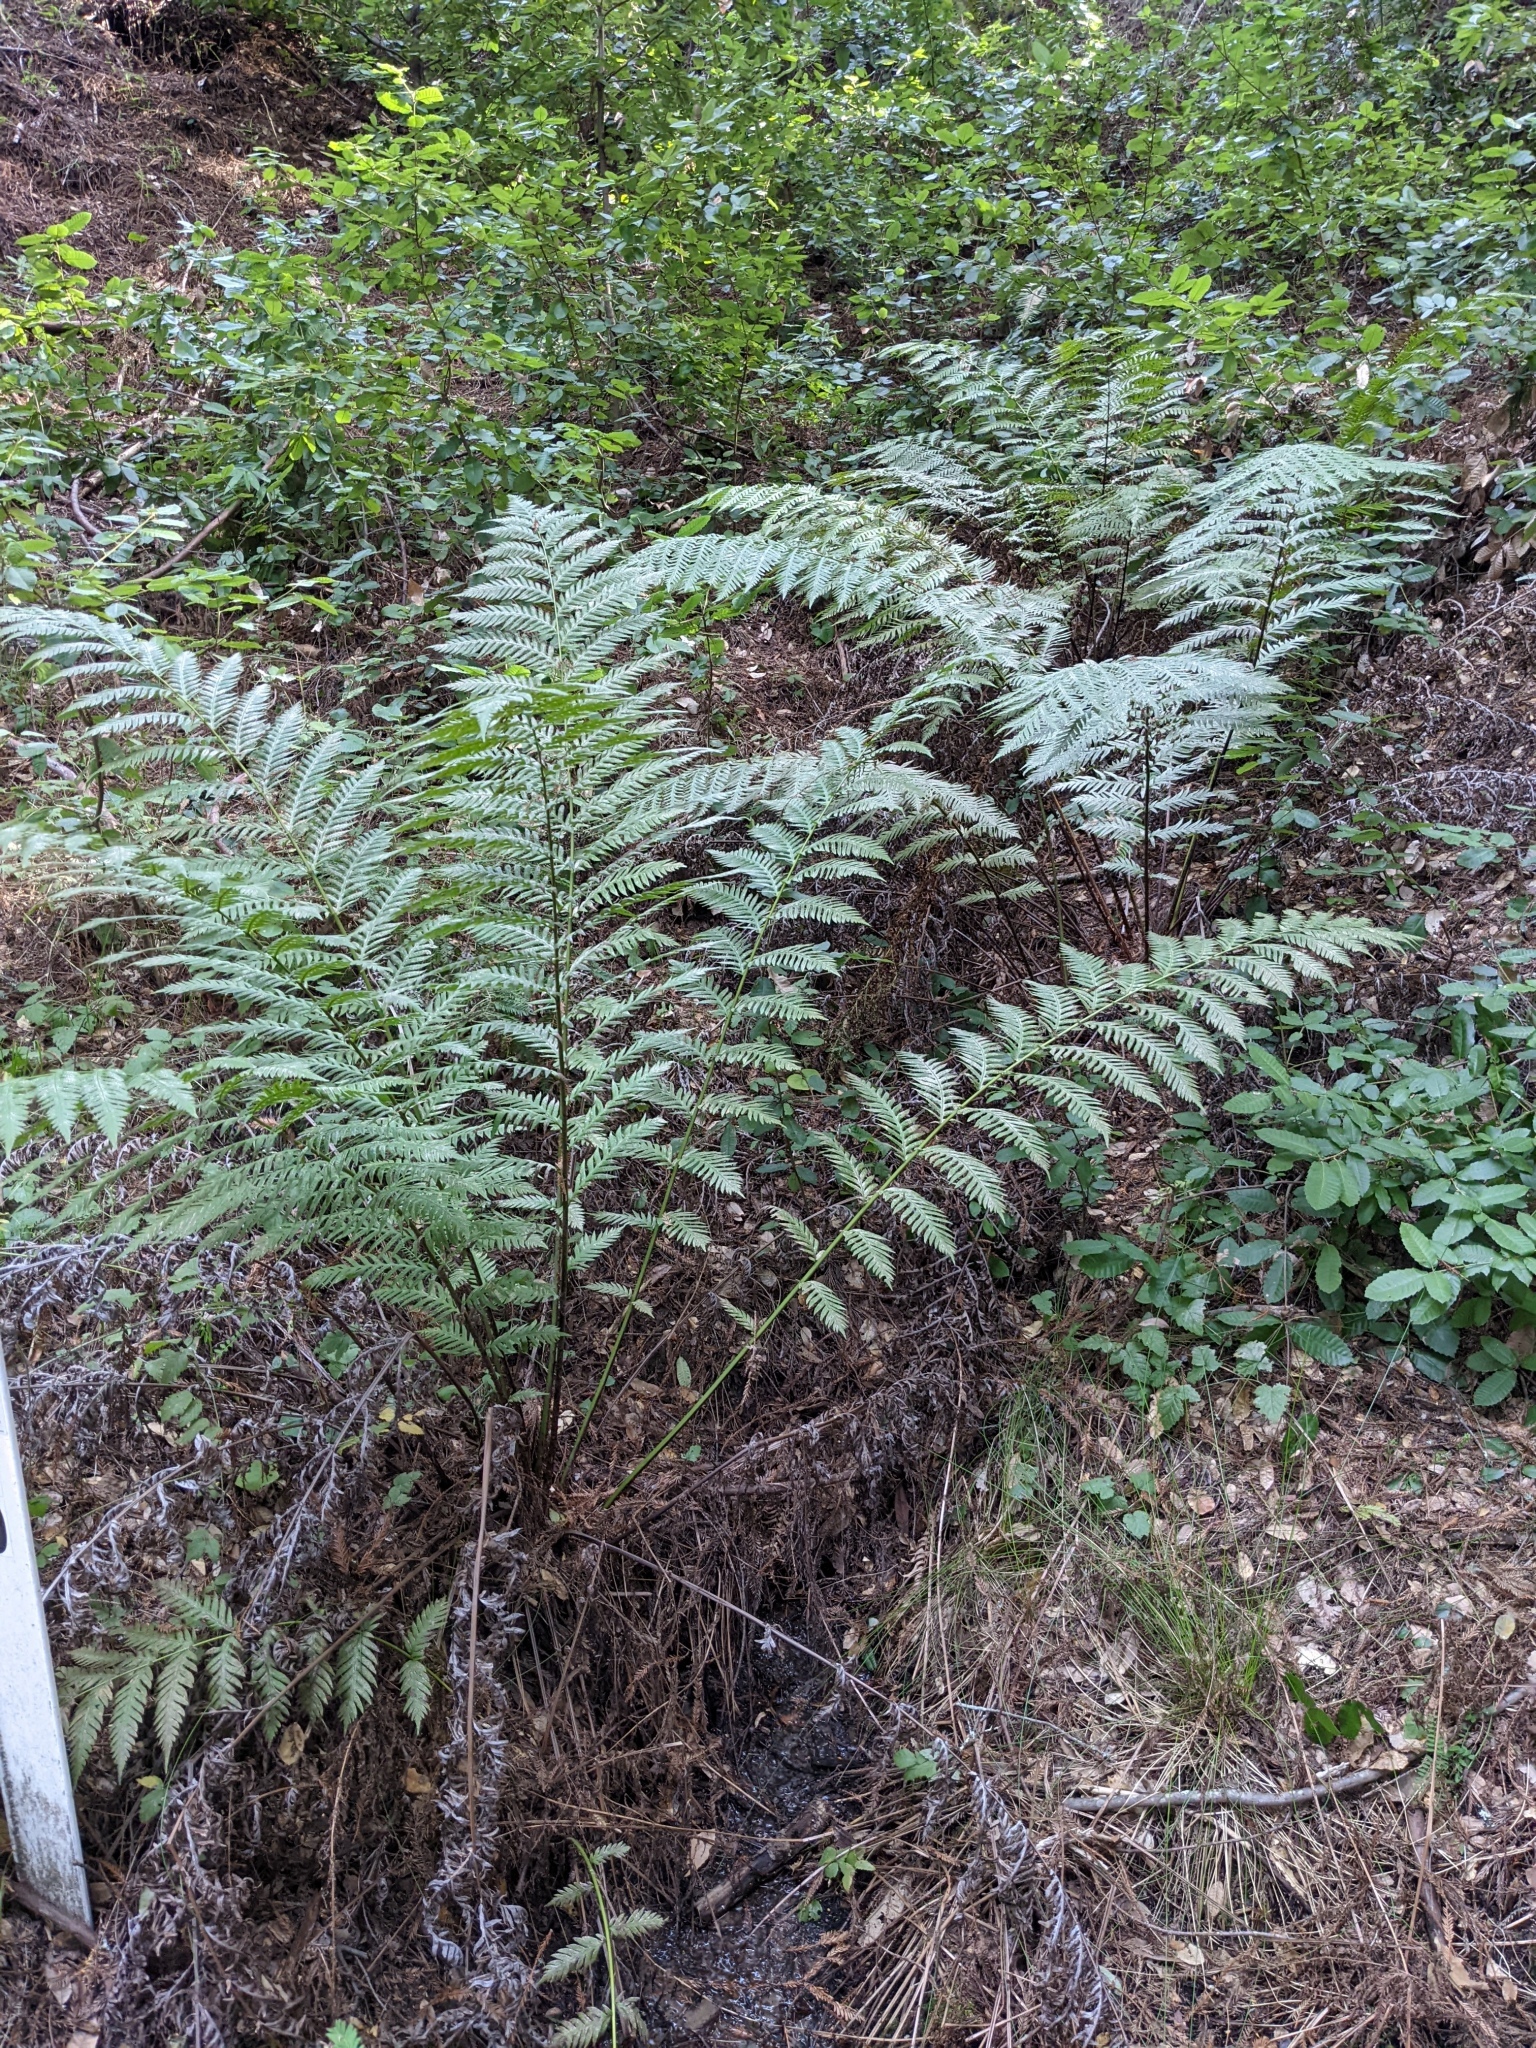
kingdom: Plantae
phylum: Tracheophyta
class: Polypodiopsida
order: Polypodiales
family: Blechnaceae
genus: Woodwardia
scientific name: Woodwardia fimbriata
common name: Giant chain fern
